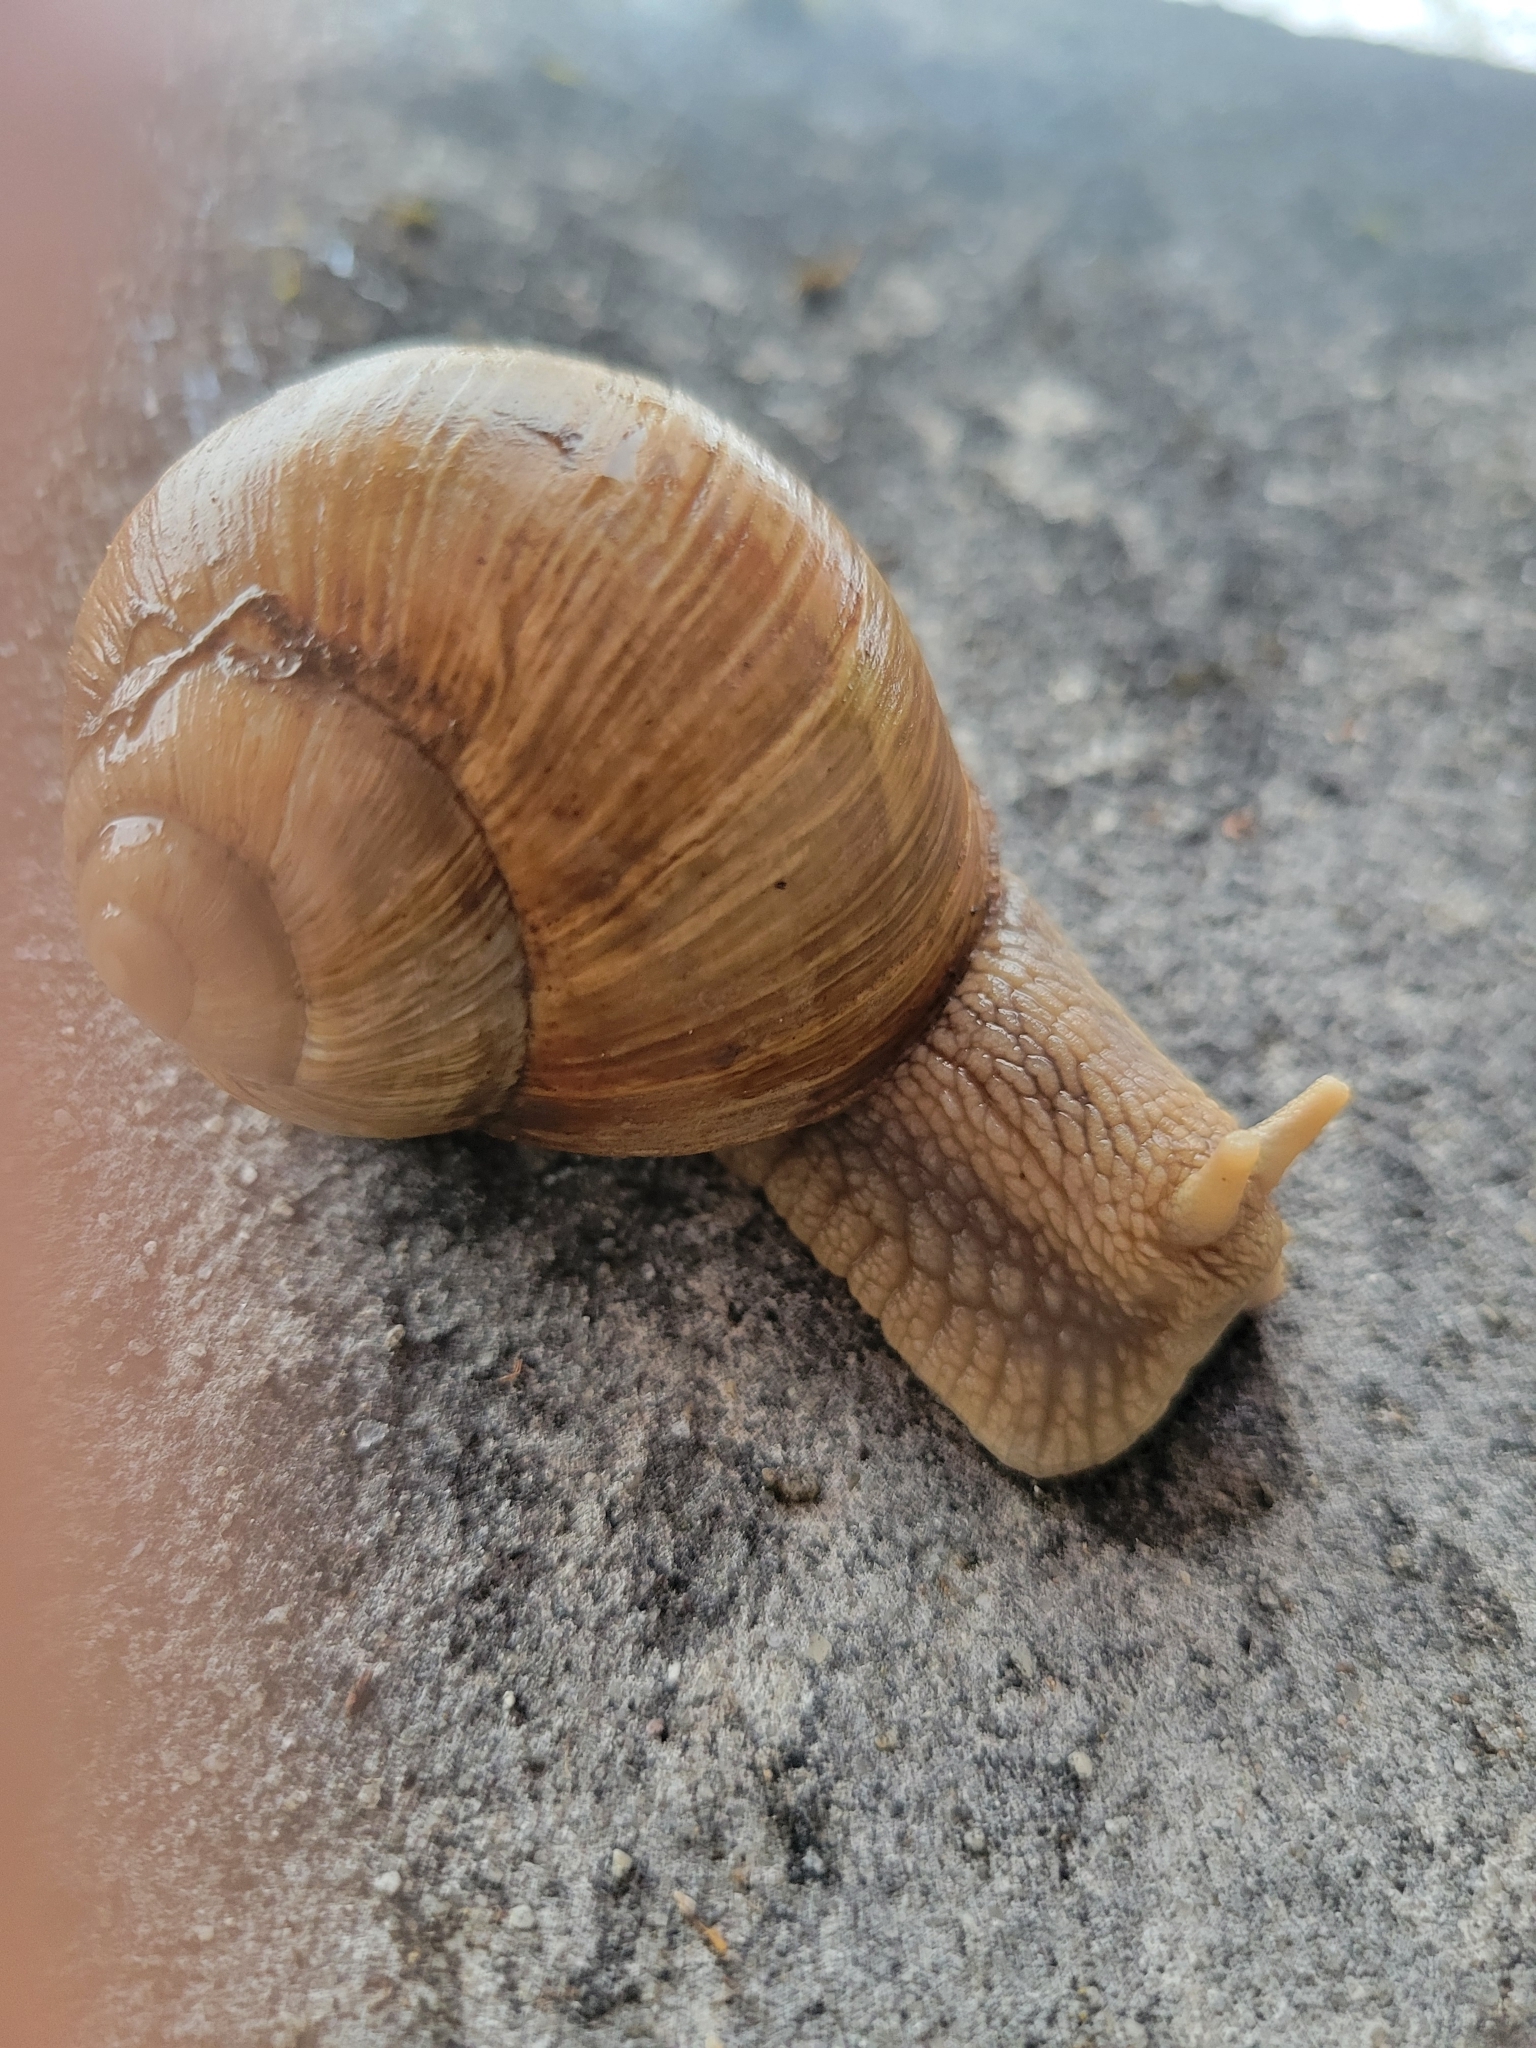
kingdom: Animalia
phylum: Mollusca
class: Gastropoda
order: Stylommatophora
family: Helicidae
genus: Helix
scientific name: Helix pomatia
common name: Roman snail
